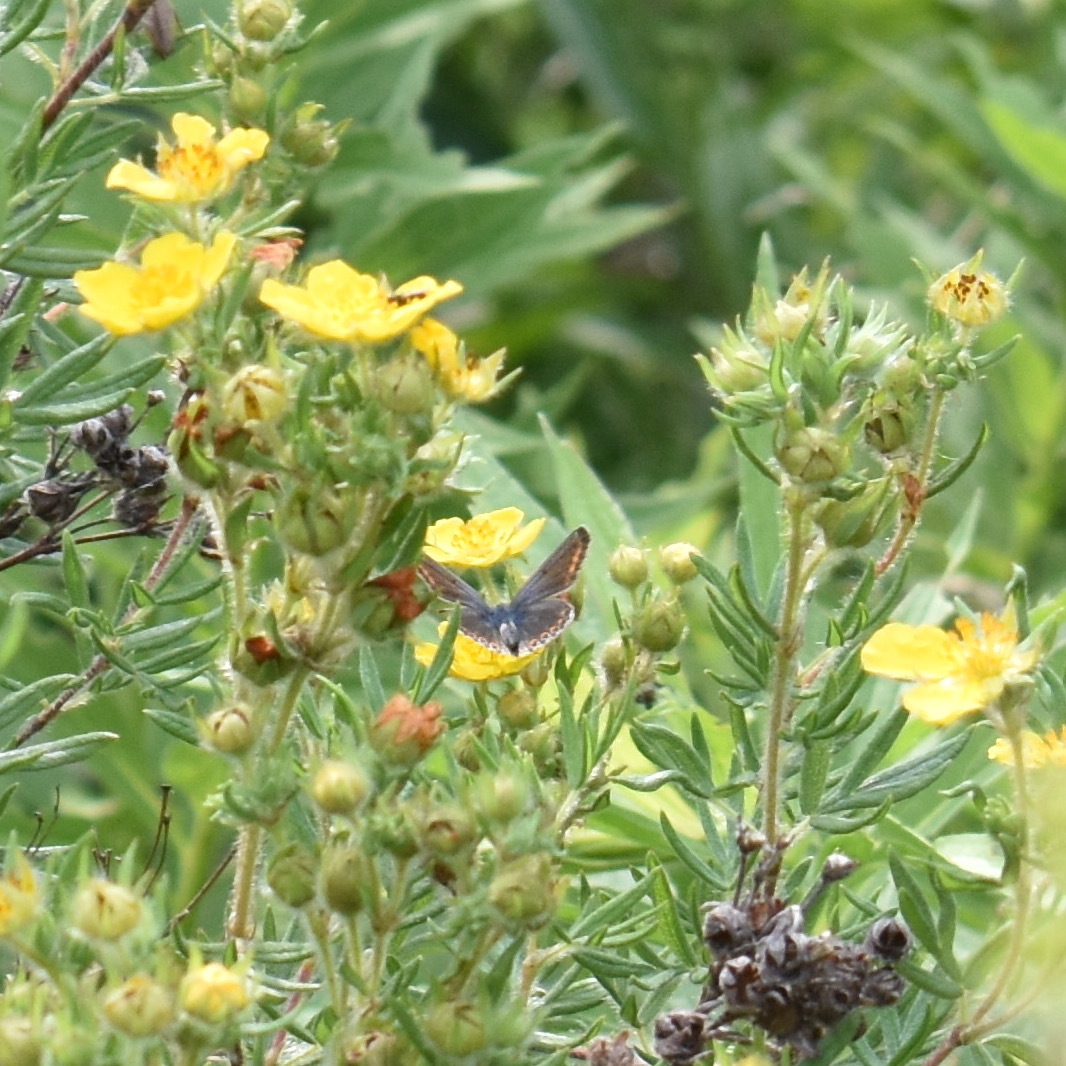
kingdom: Animalia
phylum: Arthropoda
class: Insecta
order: Lepidoptera
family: Lycaenidae
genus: Polyommatus
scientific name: Polyommatus icarus
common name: Common blue
